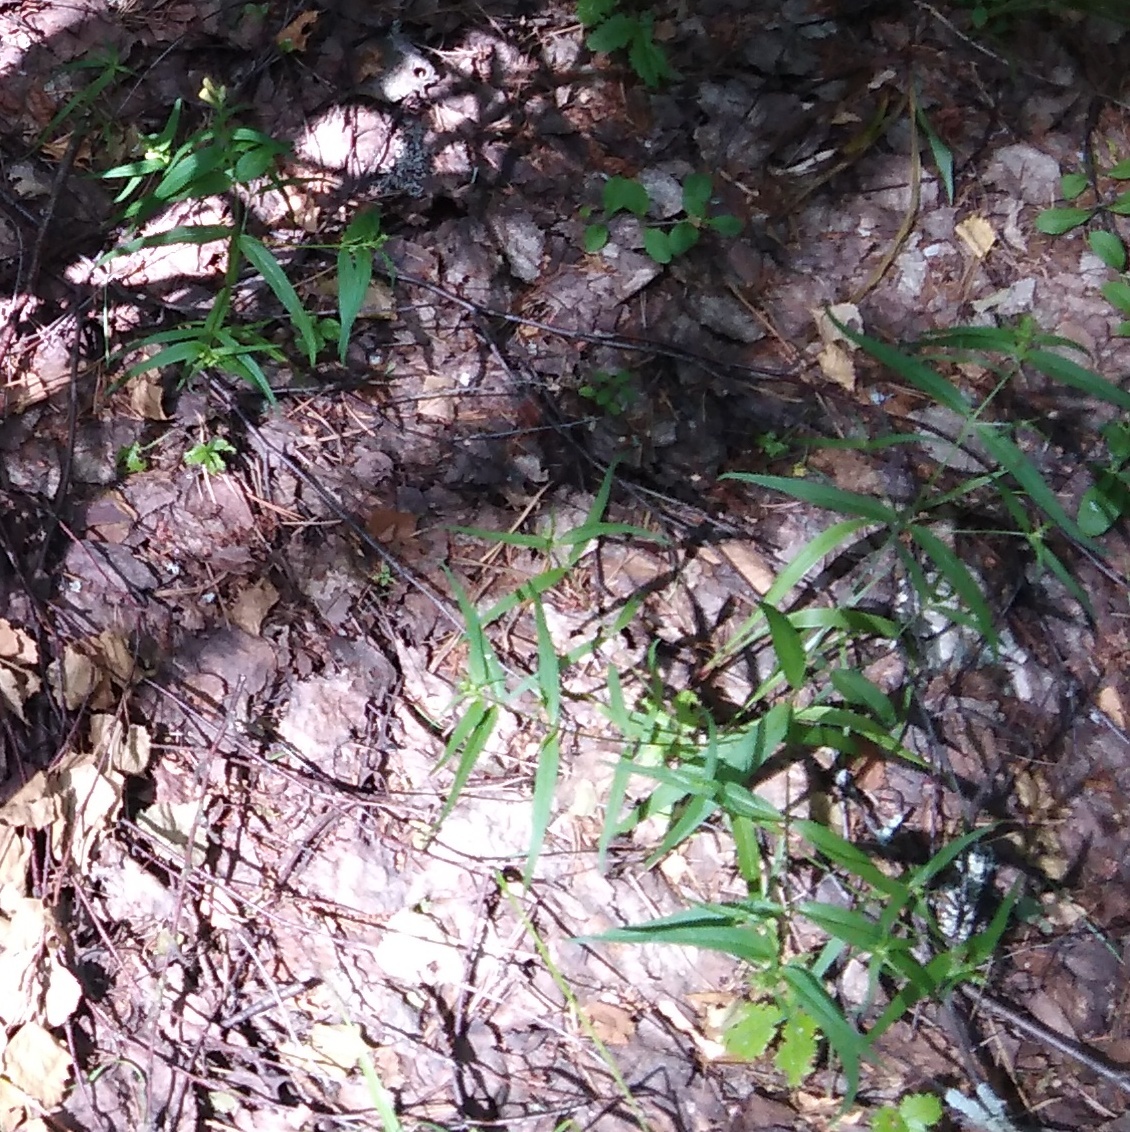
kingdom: Plantae
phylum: Tracheophyta
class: Magnoliopsida
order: Lamiales
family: Orobanchaceae
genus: Melampyrum
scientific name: Melampyrum pratense
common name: Common cow-wheat
